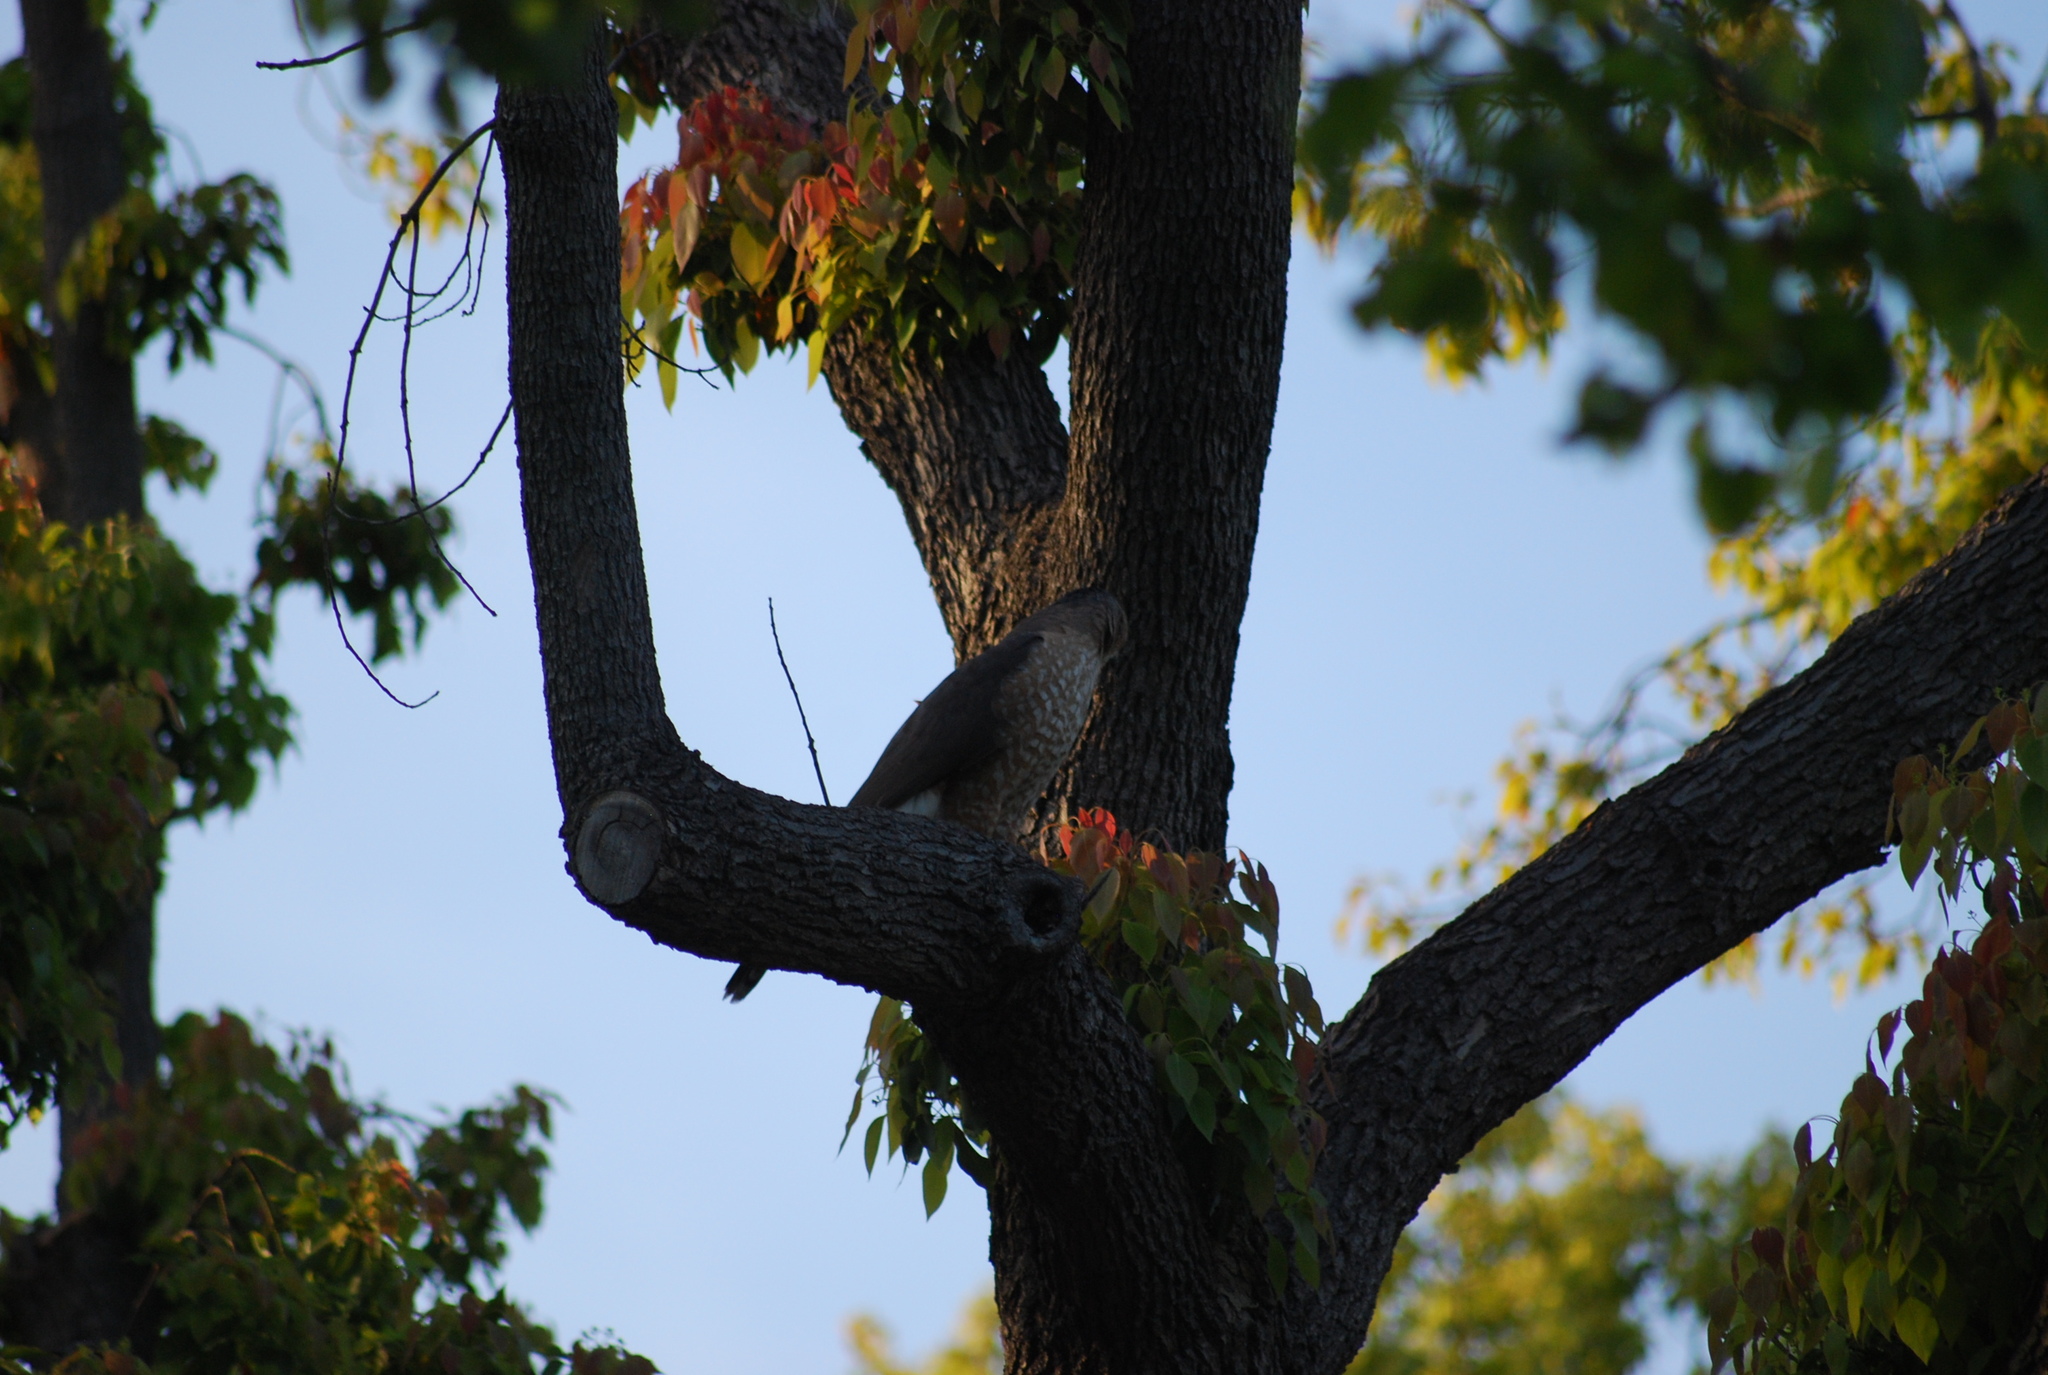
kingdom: Animalia
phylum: Chordata
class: Aves
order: Accipitriformes
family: Accipitridae
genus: Accipiter
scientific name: Accipiter cooperii
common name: Cooper's hawk
